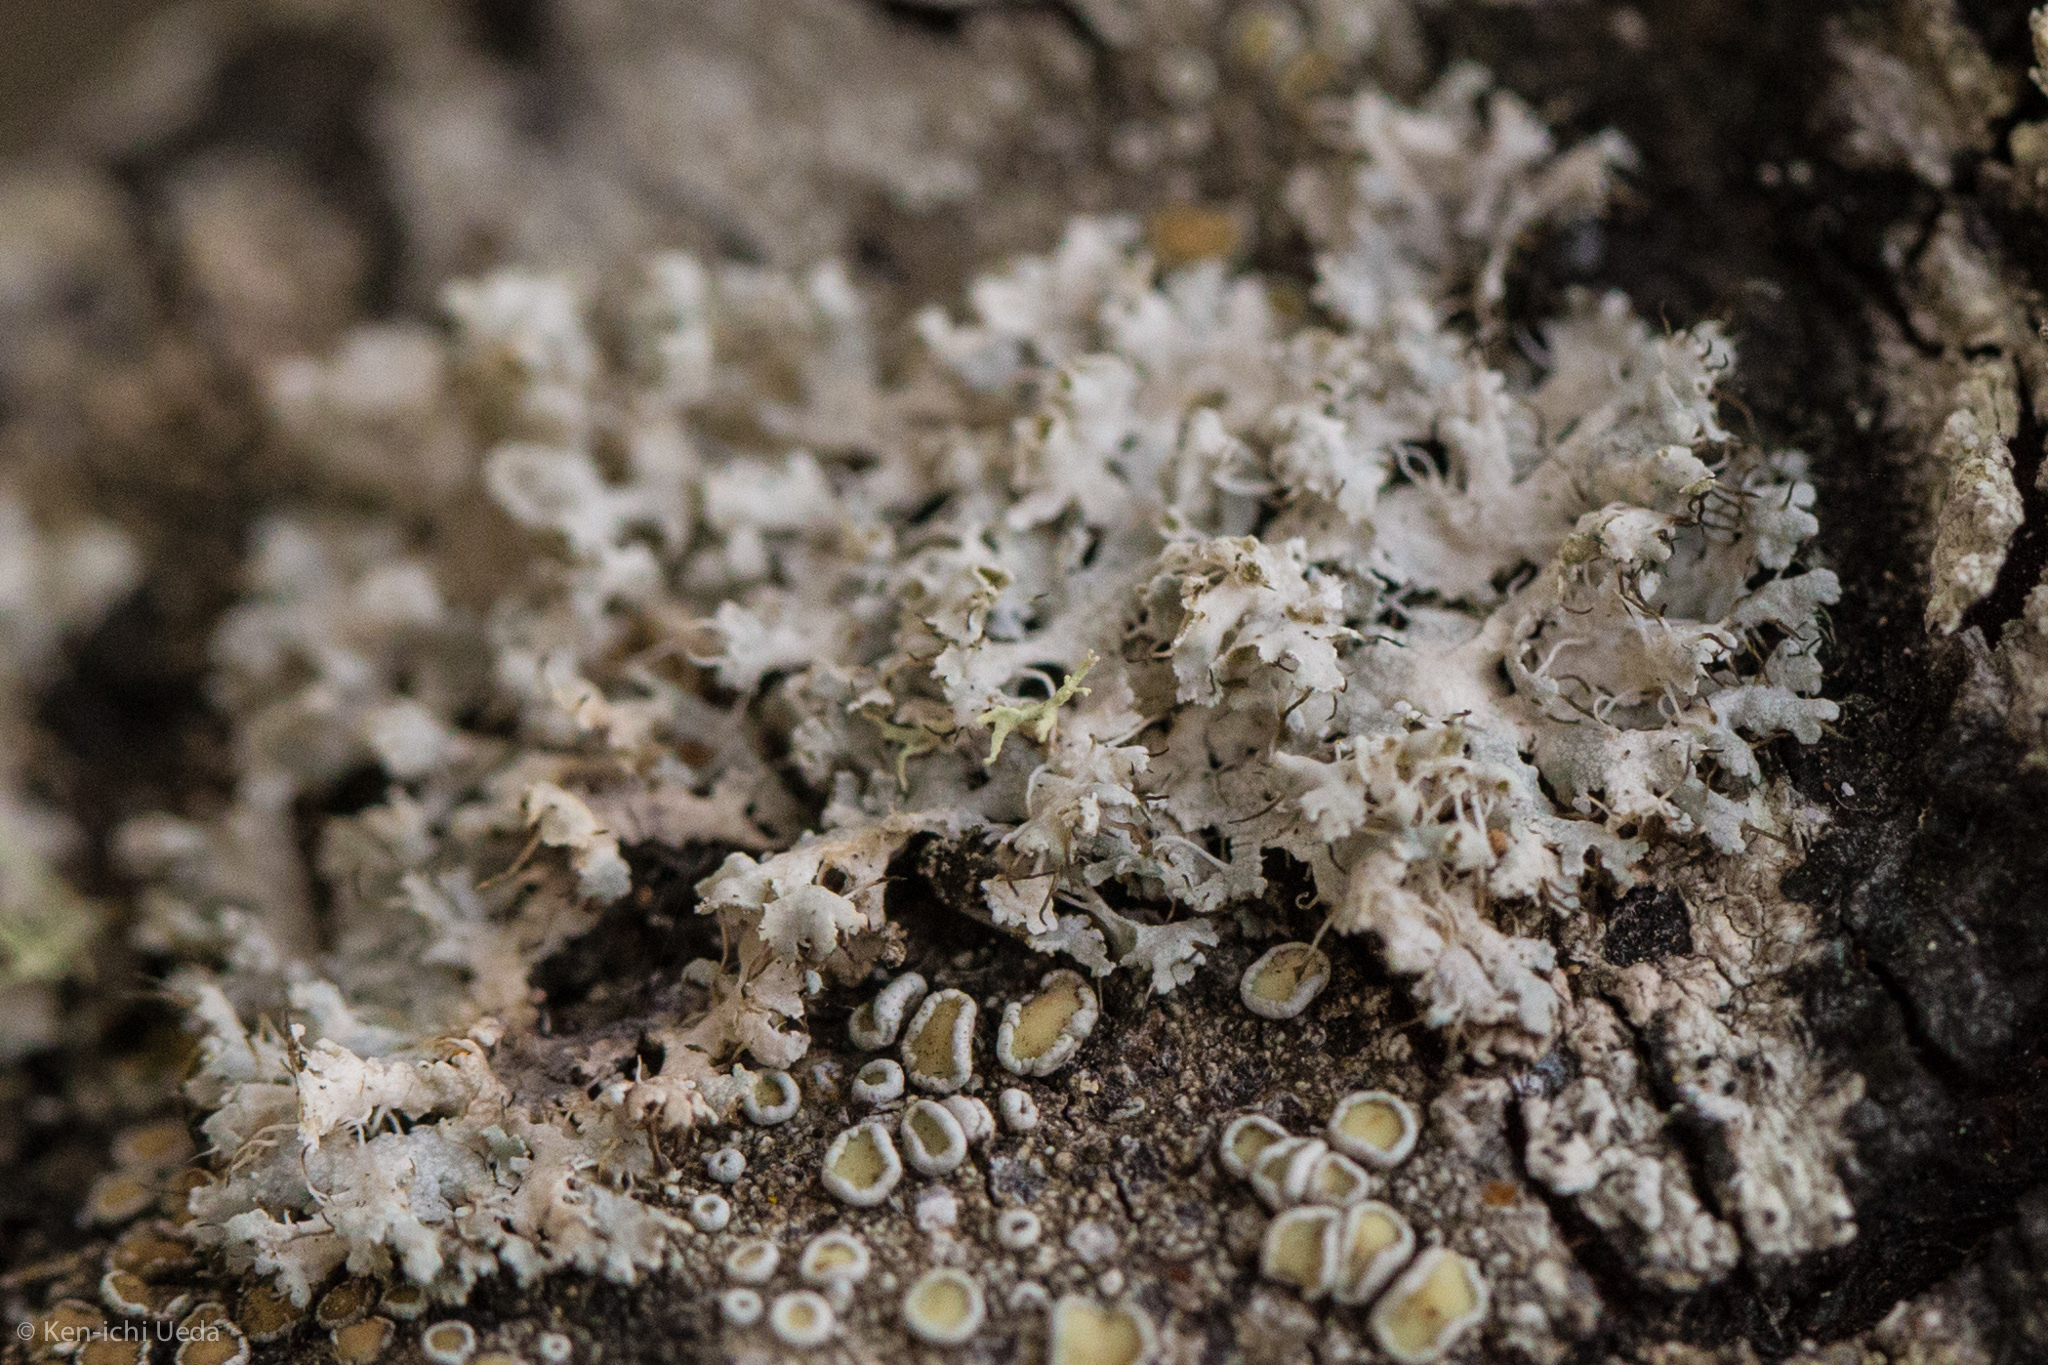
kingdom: Fungi
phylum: Ascomycota
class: Lecanoromycetes
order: Caliciales
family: Physciaceae
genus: Physcia
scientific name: Physcia adscendens
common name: Hooded rosette lichen
